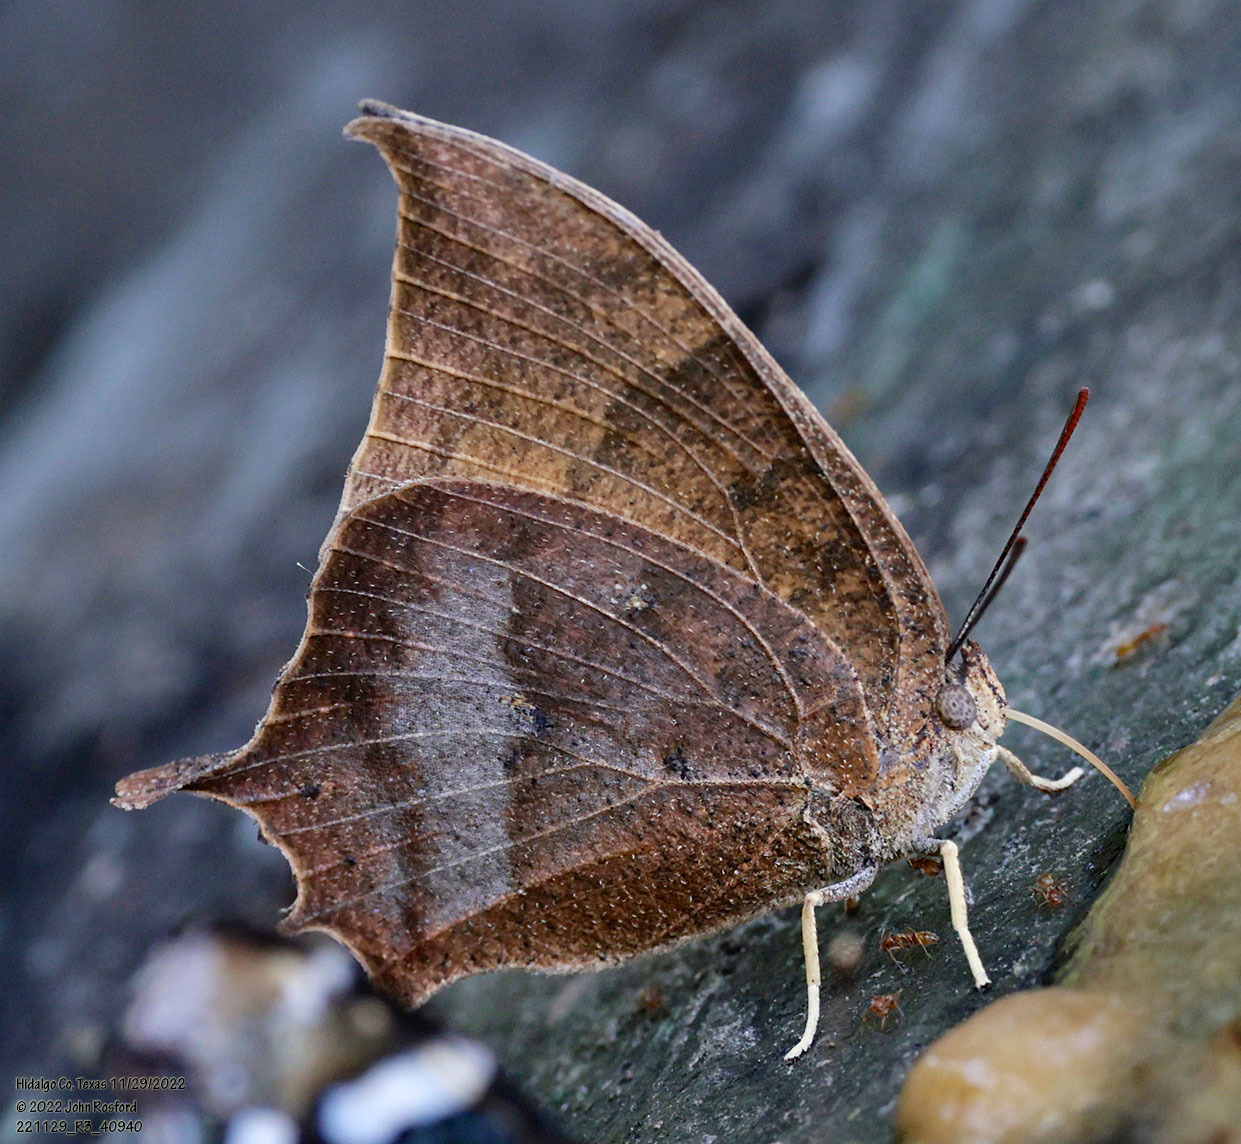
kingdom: Animalia
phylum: Arthropoda
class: Insecta
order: Lepidoptera
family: Nymphalidae
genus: Anaea
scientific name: Anaea aidea
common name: Tropical leafwing
